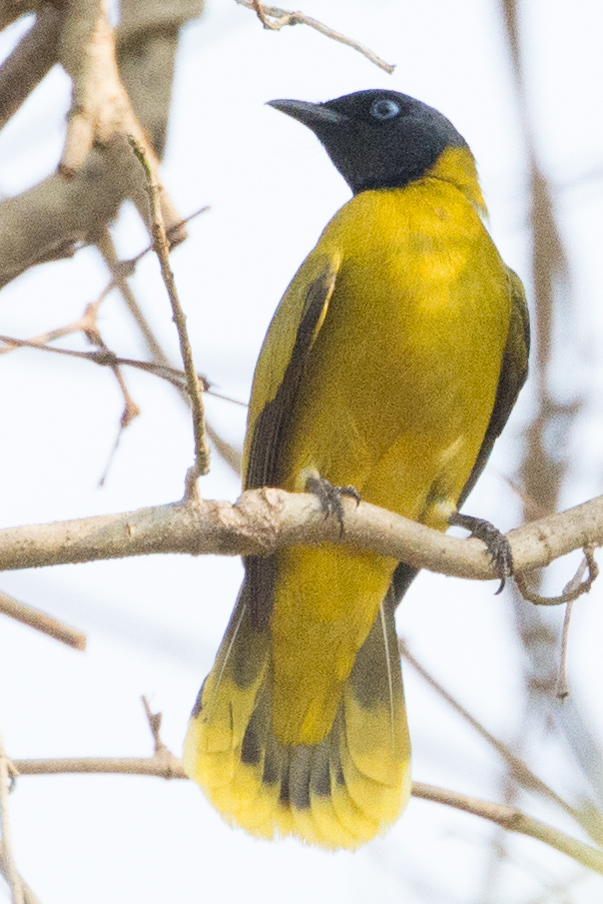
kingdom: Animalia
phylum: Chordata
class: Aves
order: Passeriformes
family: Pycnonotidae
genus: Microtarsus
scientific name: Microtarsus
